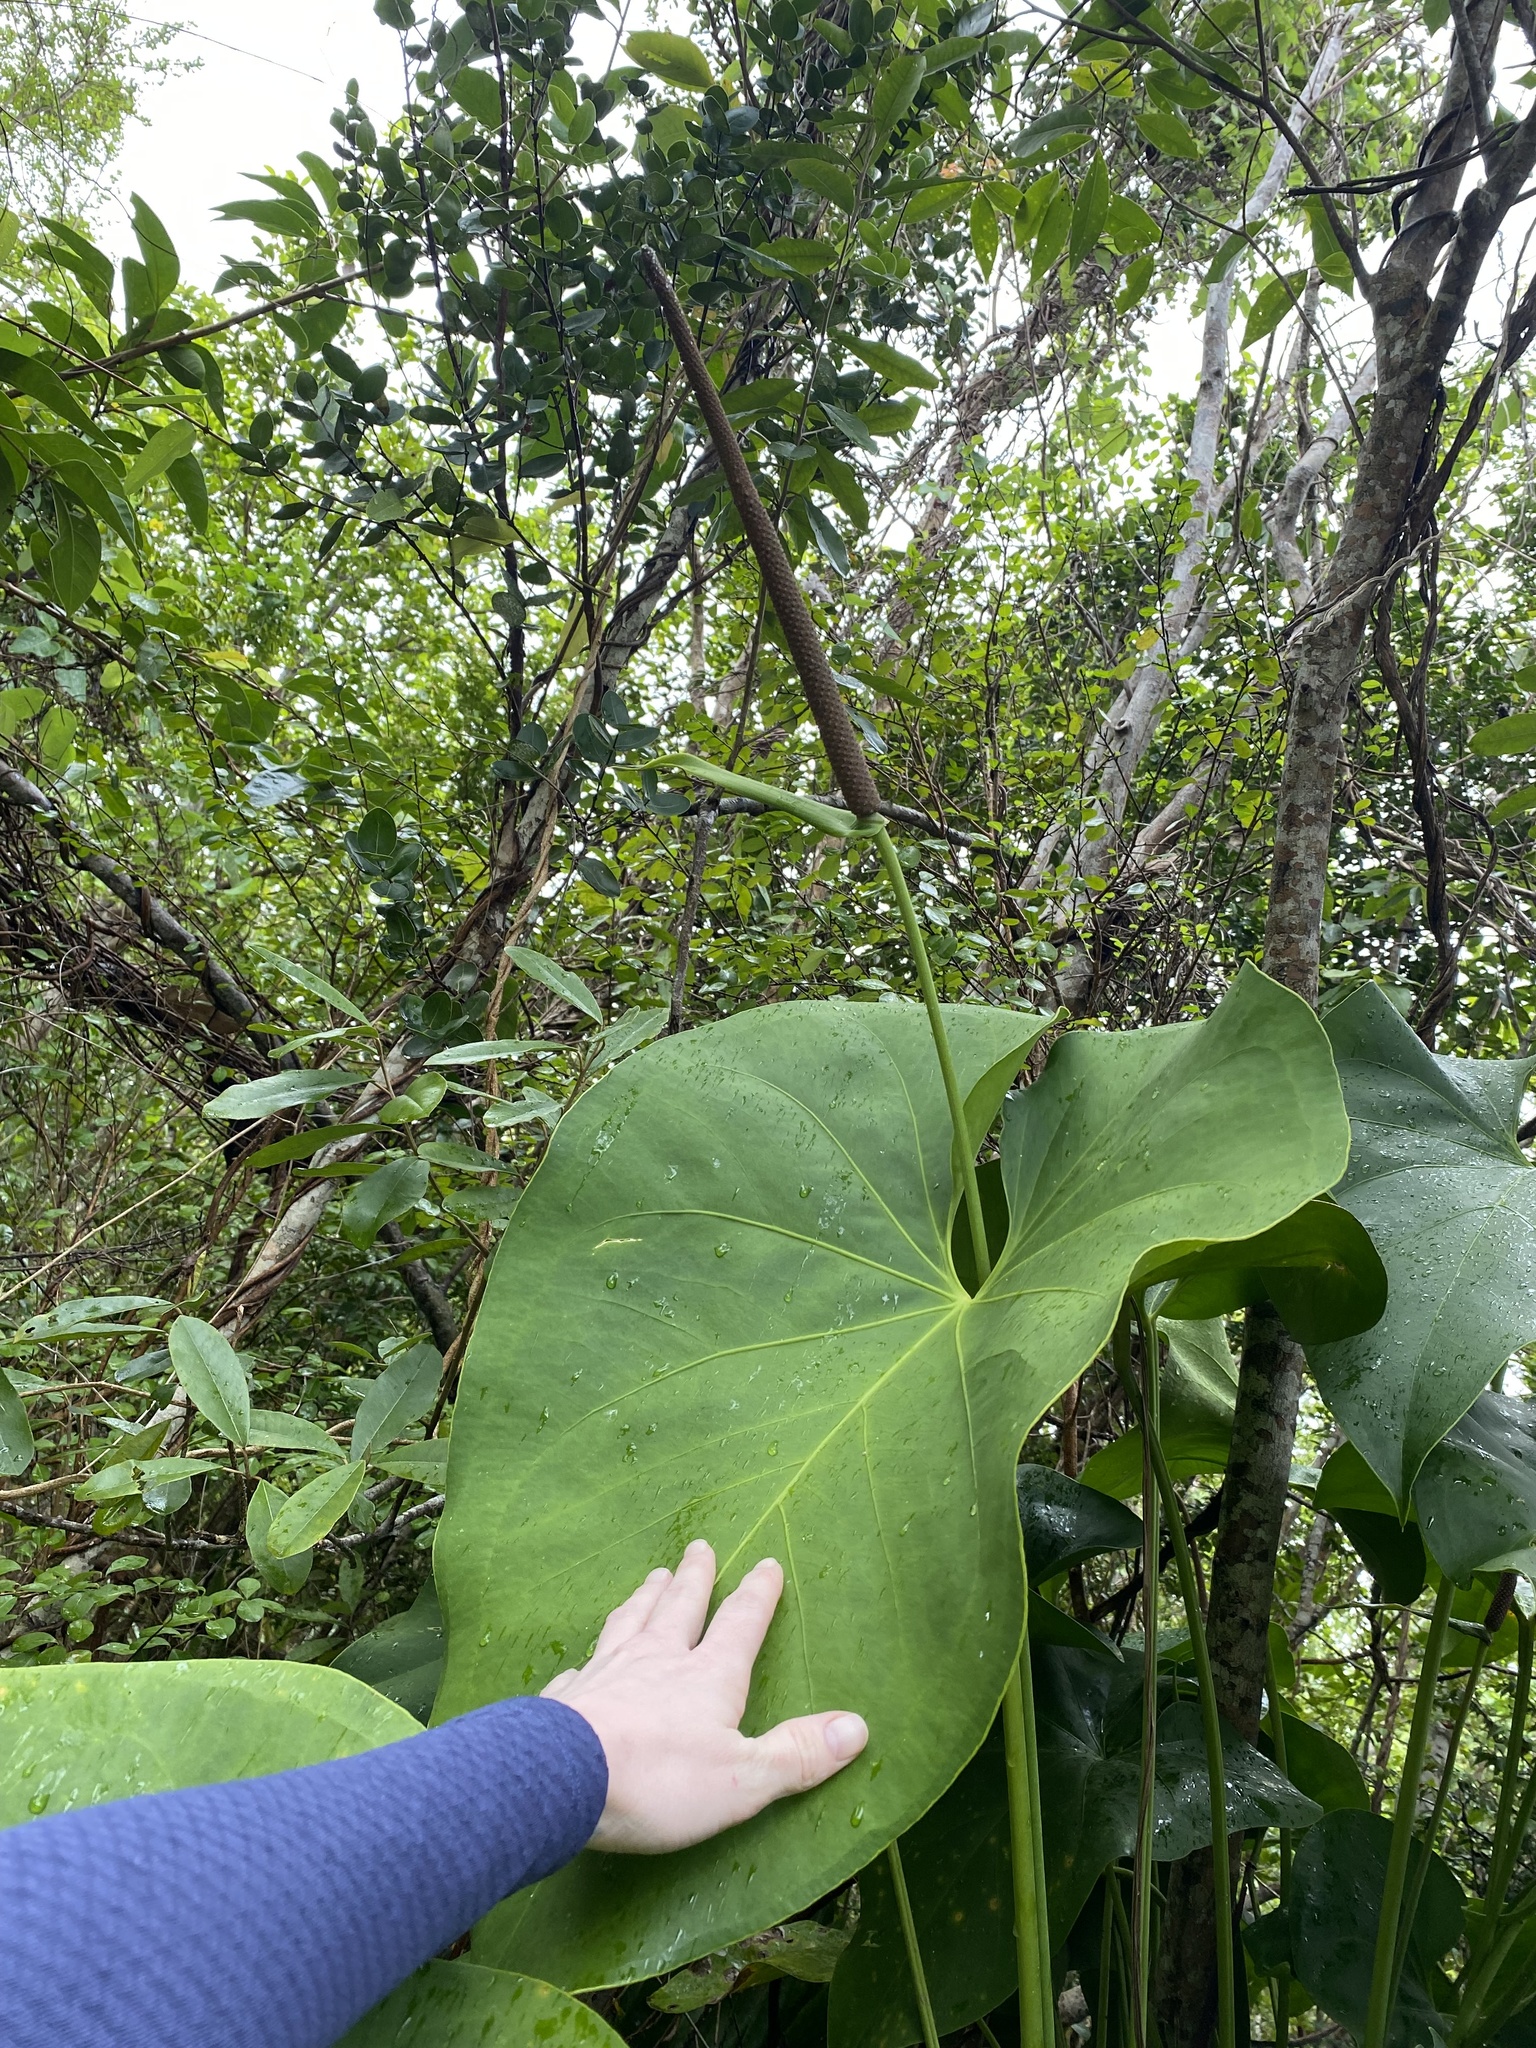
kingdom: Plantae
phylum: Tracheophyta
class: Liliopsida
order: Alismatales
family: Araceae
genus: Anthurium
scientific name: Anthurium cordatum
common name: Monkey tail
